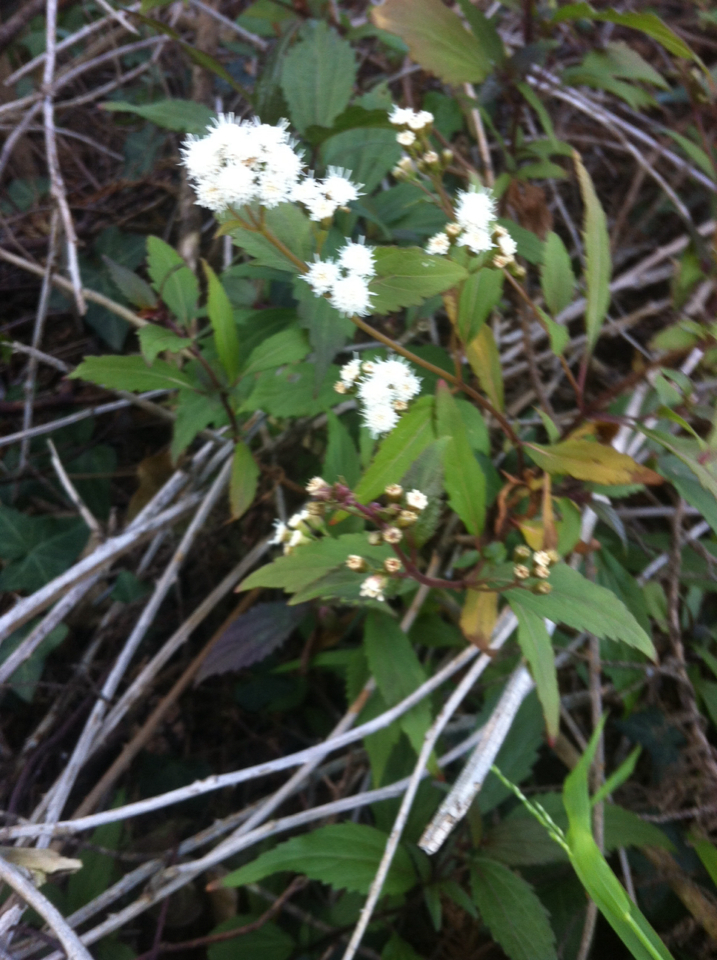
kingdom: Plantae
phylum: Tracheophyta
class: Magnoliopsida
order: Asterales
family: Asteraceae
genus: Ageratina
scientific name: Ageratina adenophora
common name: Sticky snakeroot
